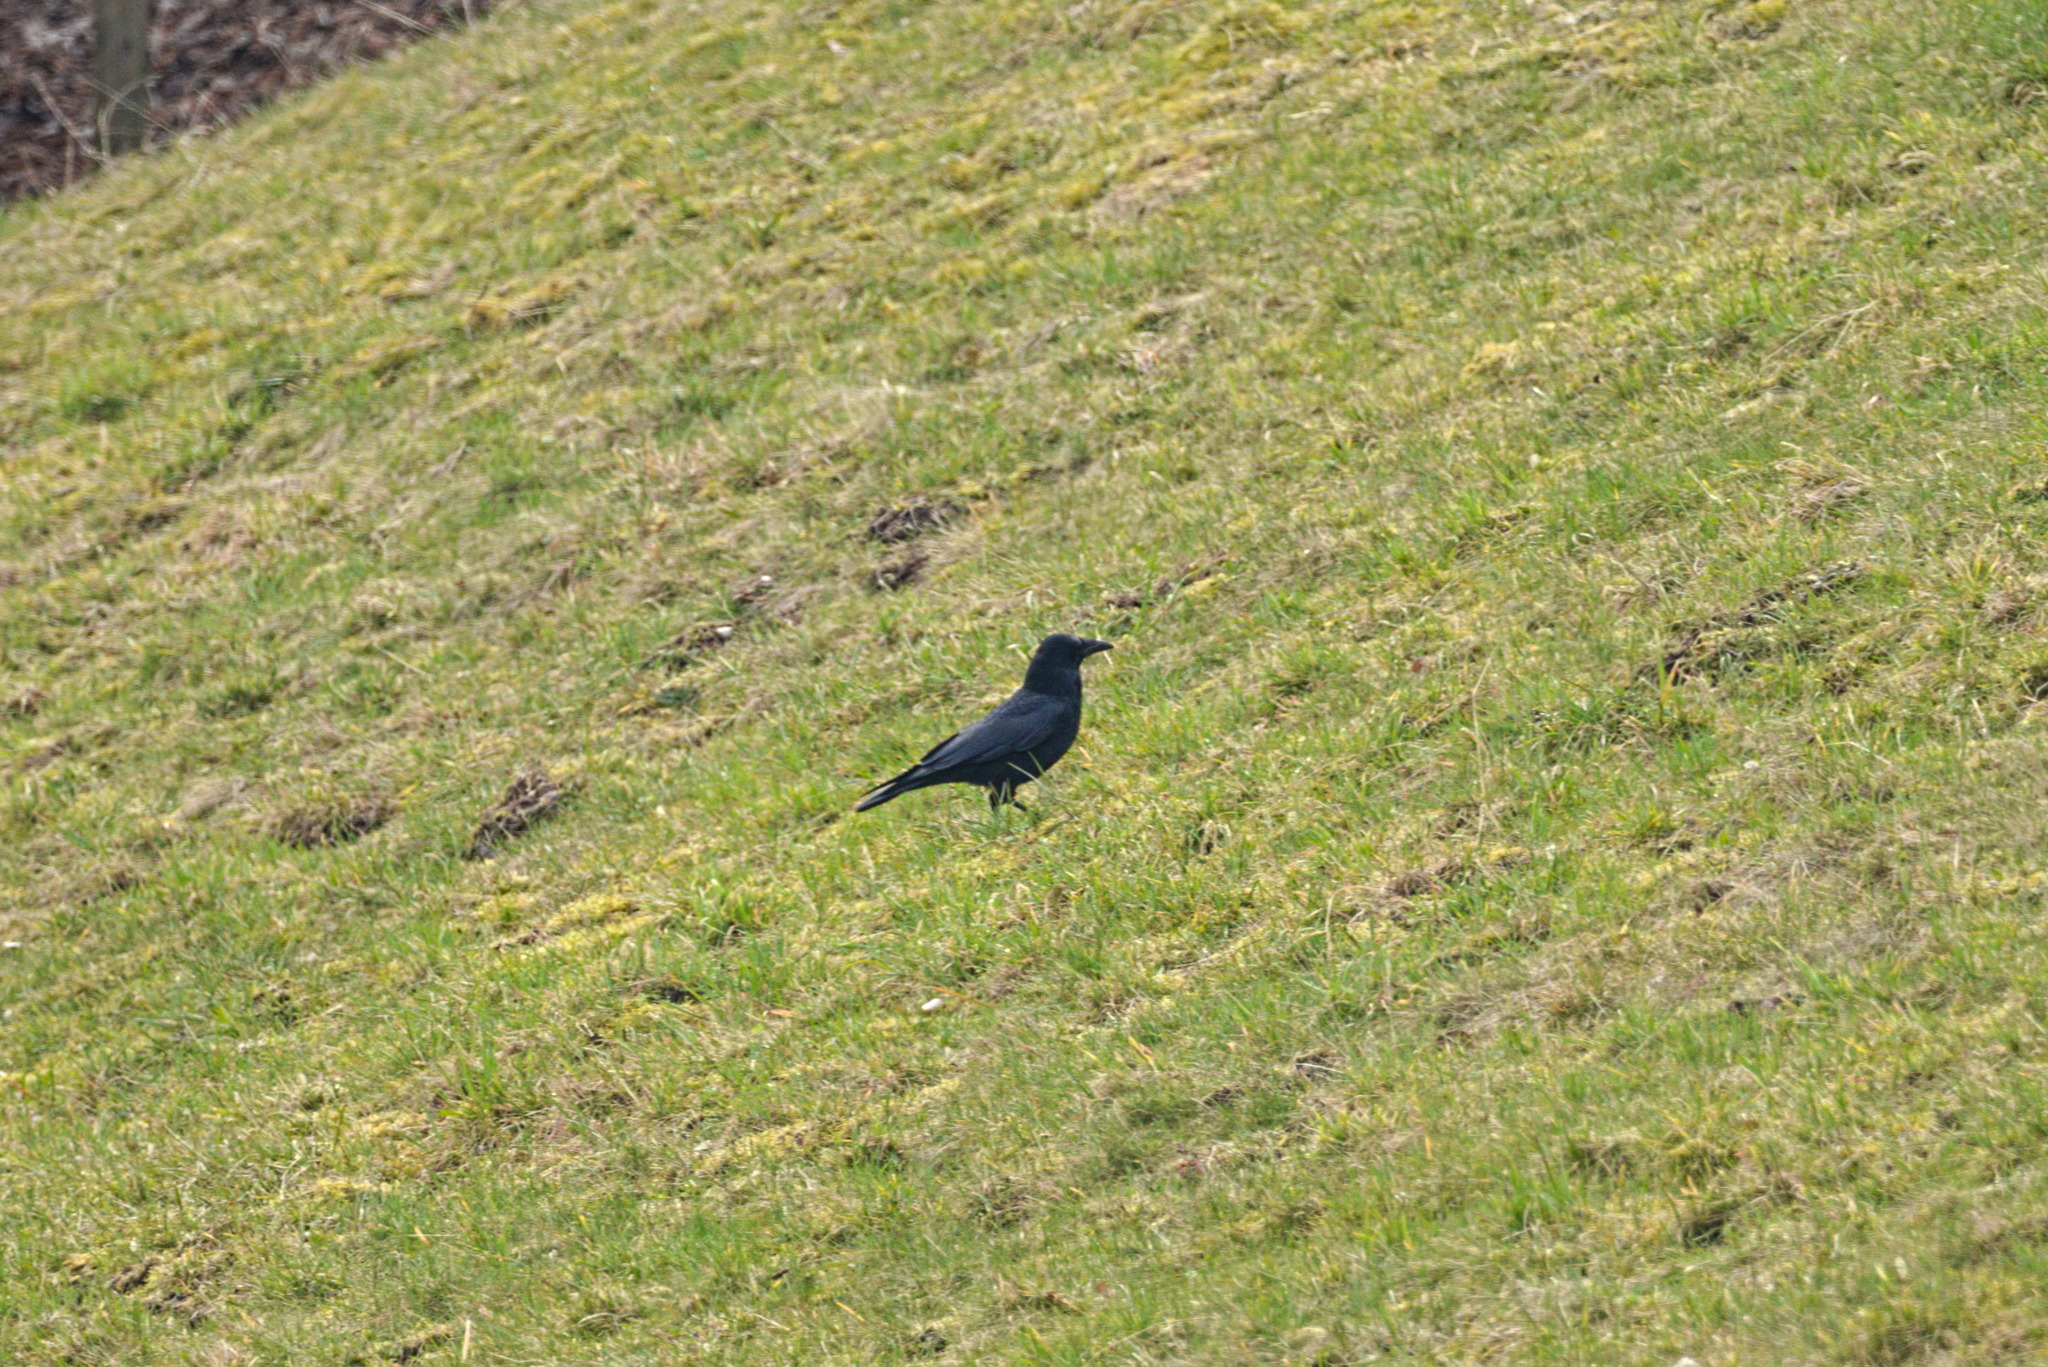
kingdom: Animalia
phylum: Chordata
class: Aves
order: Passeriformes
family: Corvidae
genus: Corvus
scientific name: Corvus corone
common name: Carrion crow
